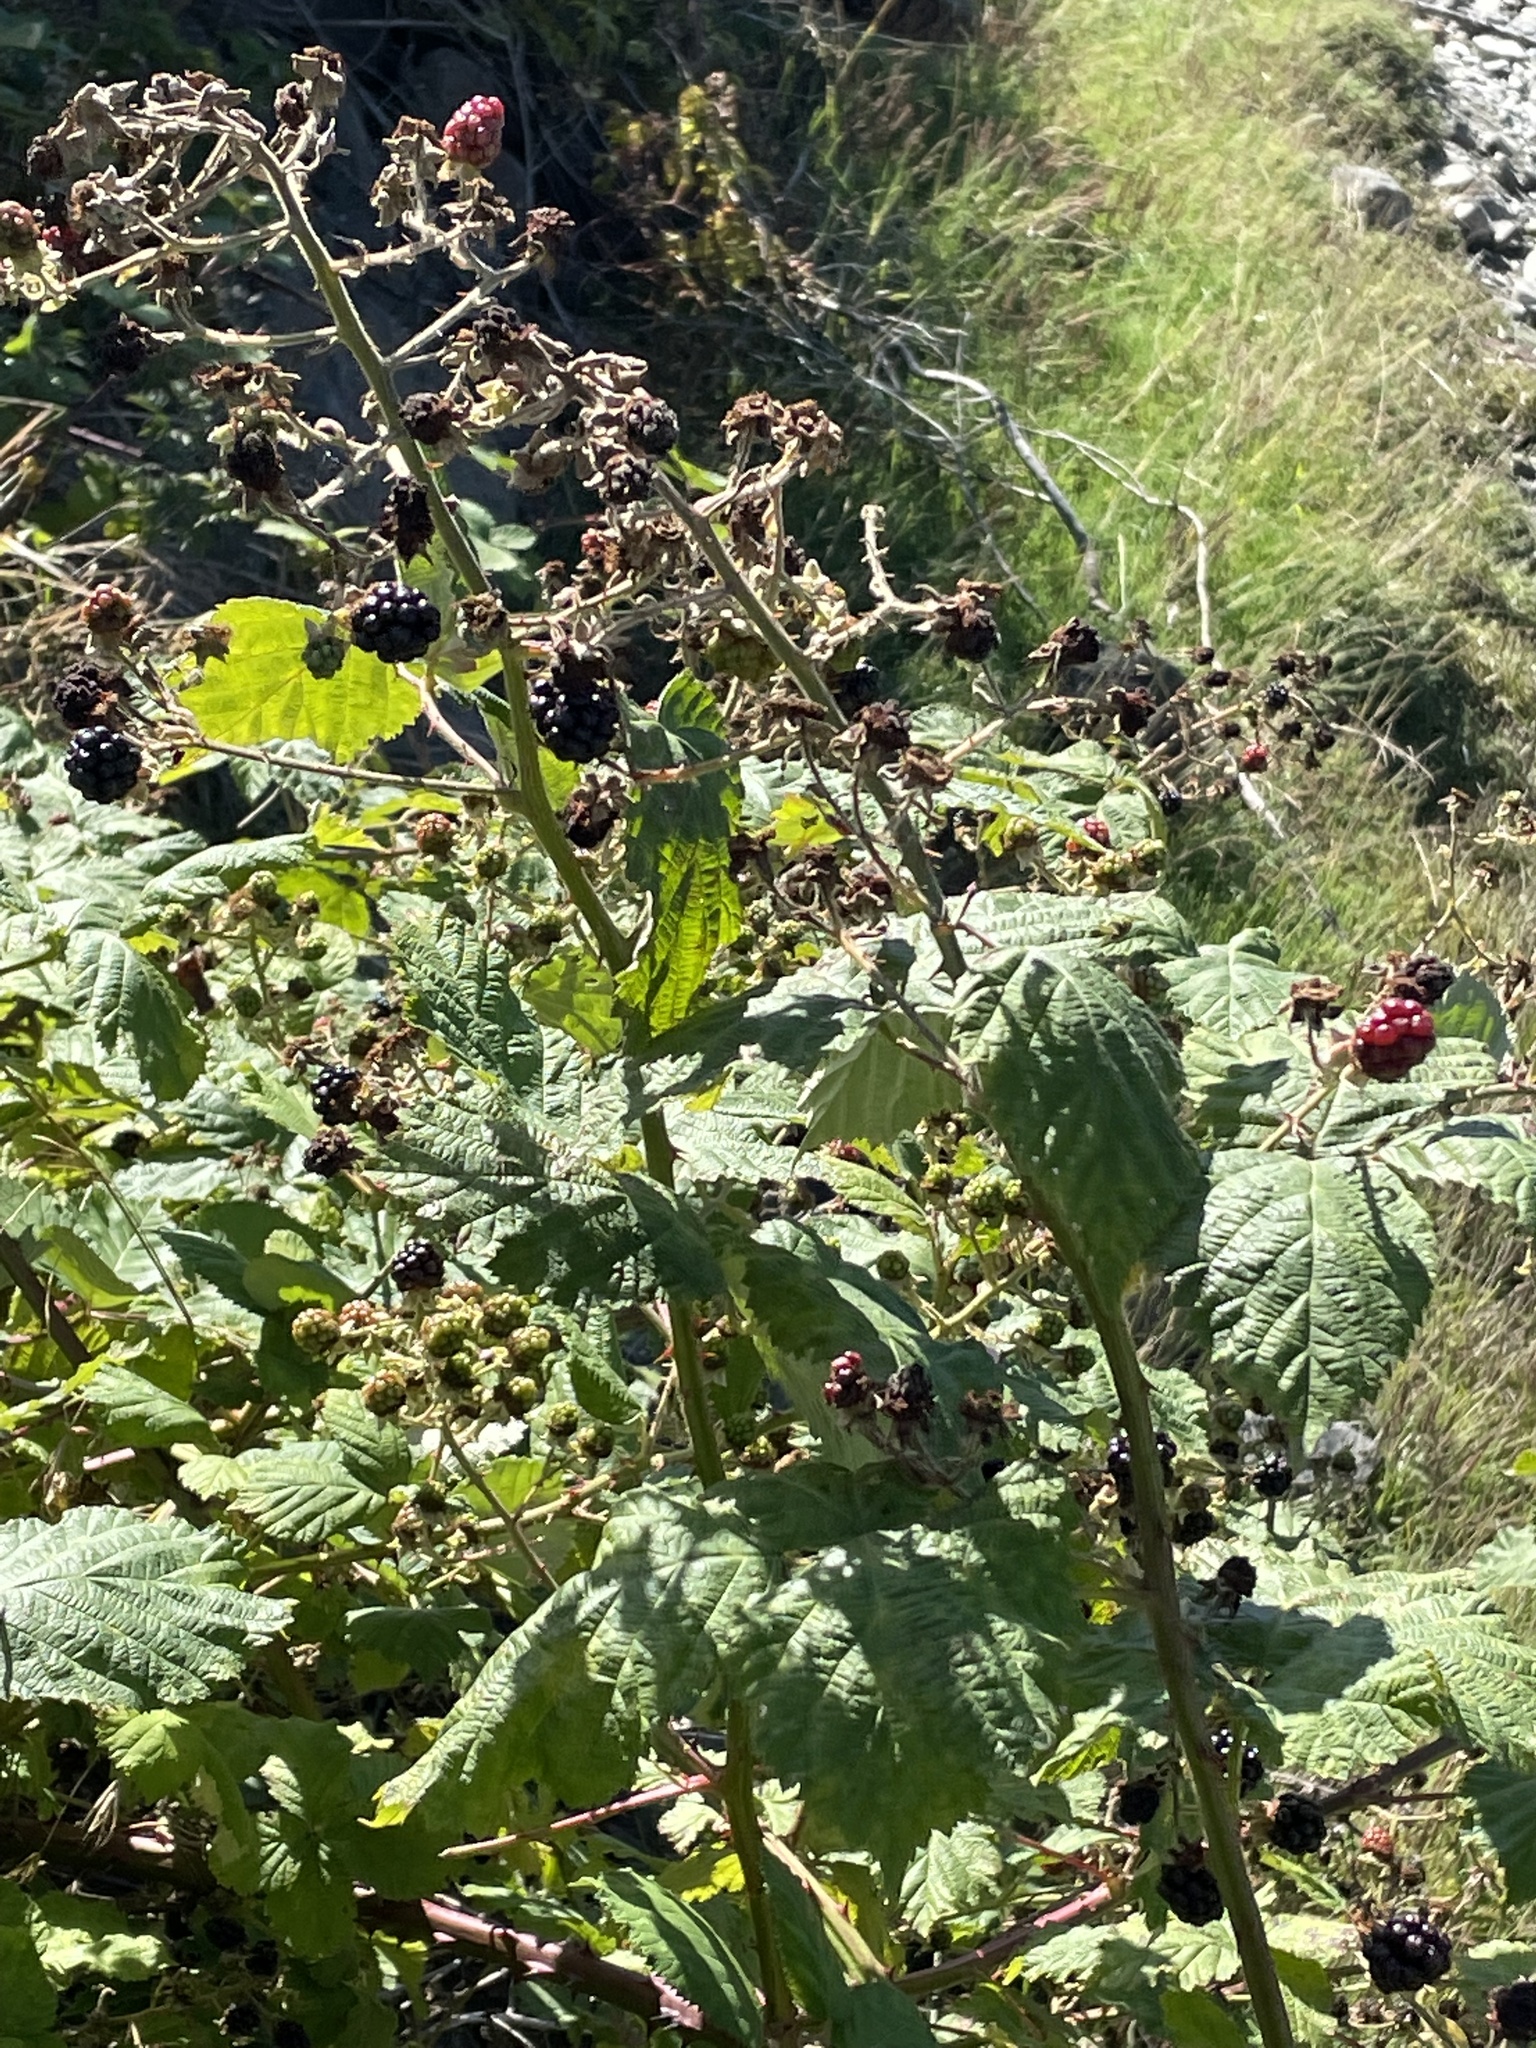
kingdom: Plantae
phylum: Tracheophyta
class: Magnoliopsida
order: Rosales
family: Rosaceae
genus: Rubus
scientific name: Rubus armeniacus
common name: Himalayan blackberry
